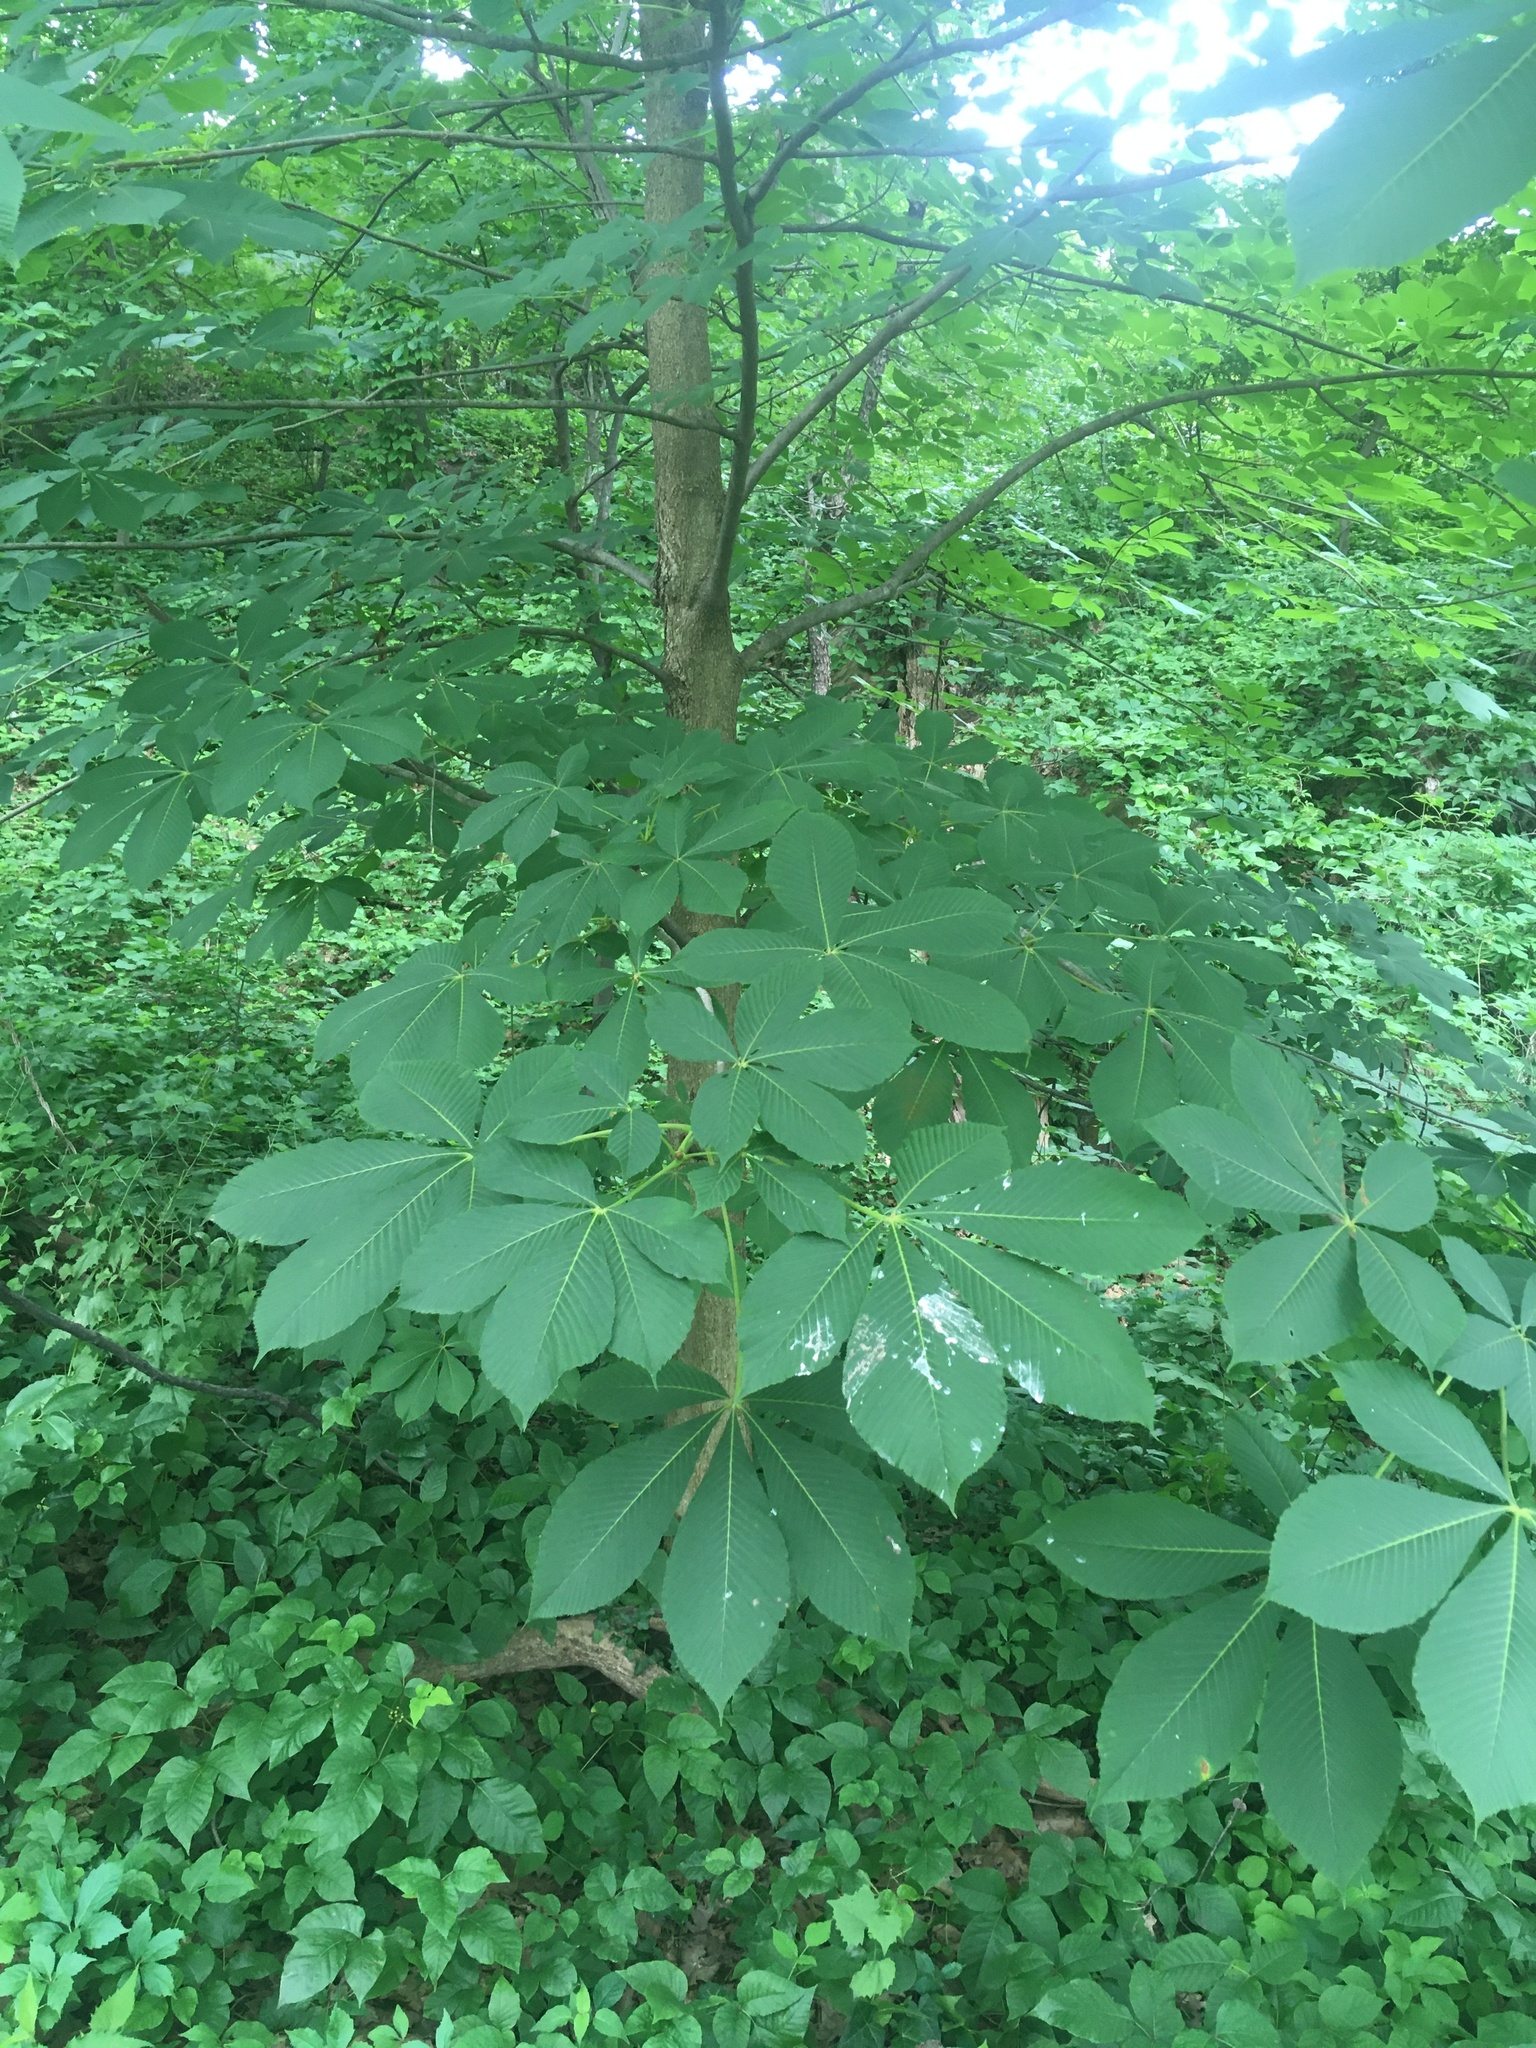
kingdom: Plantae
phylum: Tracheophyta
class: Magnoliopsida
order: Sapindales
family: Sapindaceae
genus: Aesculus
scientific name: Aesculus flava
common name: Yellow buckeye
